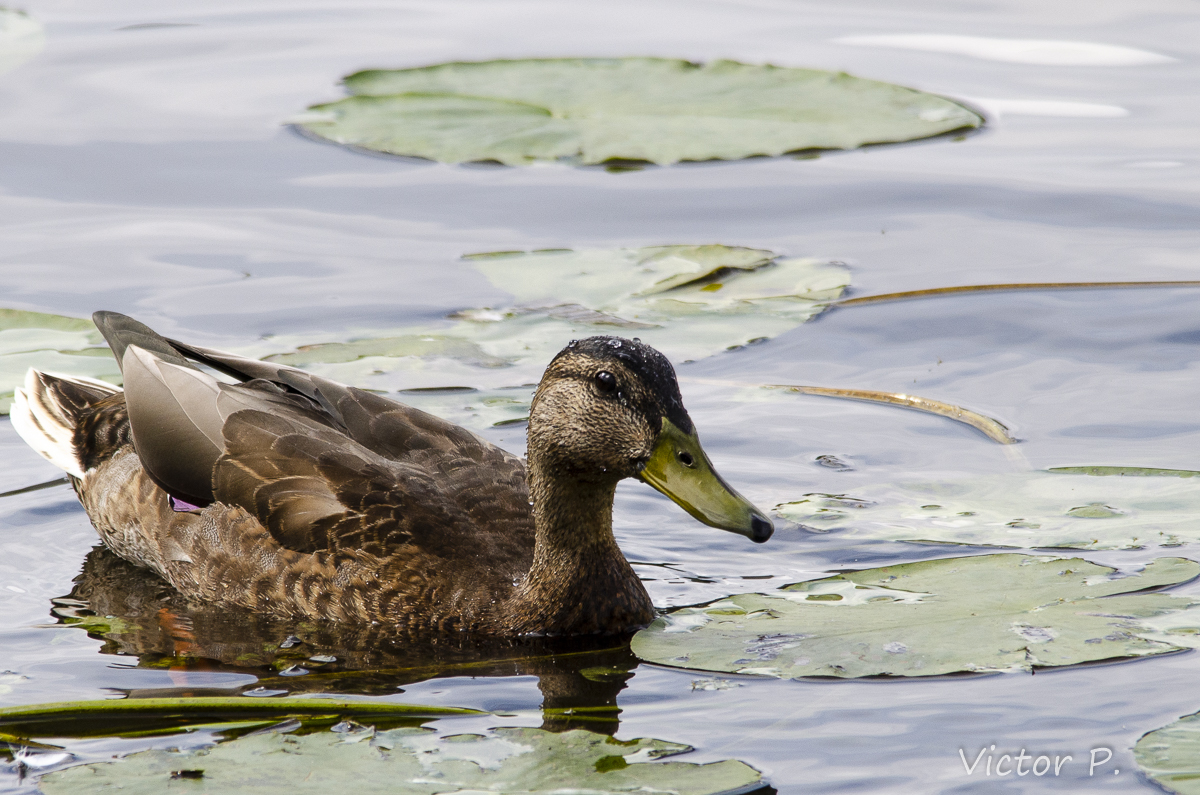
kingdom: Animalia
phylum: Chordata
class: Aves
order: Anseriformes
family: Anatidae
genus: Anas
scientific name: Anas platyrhynchos
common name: Mallard
